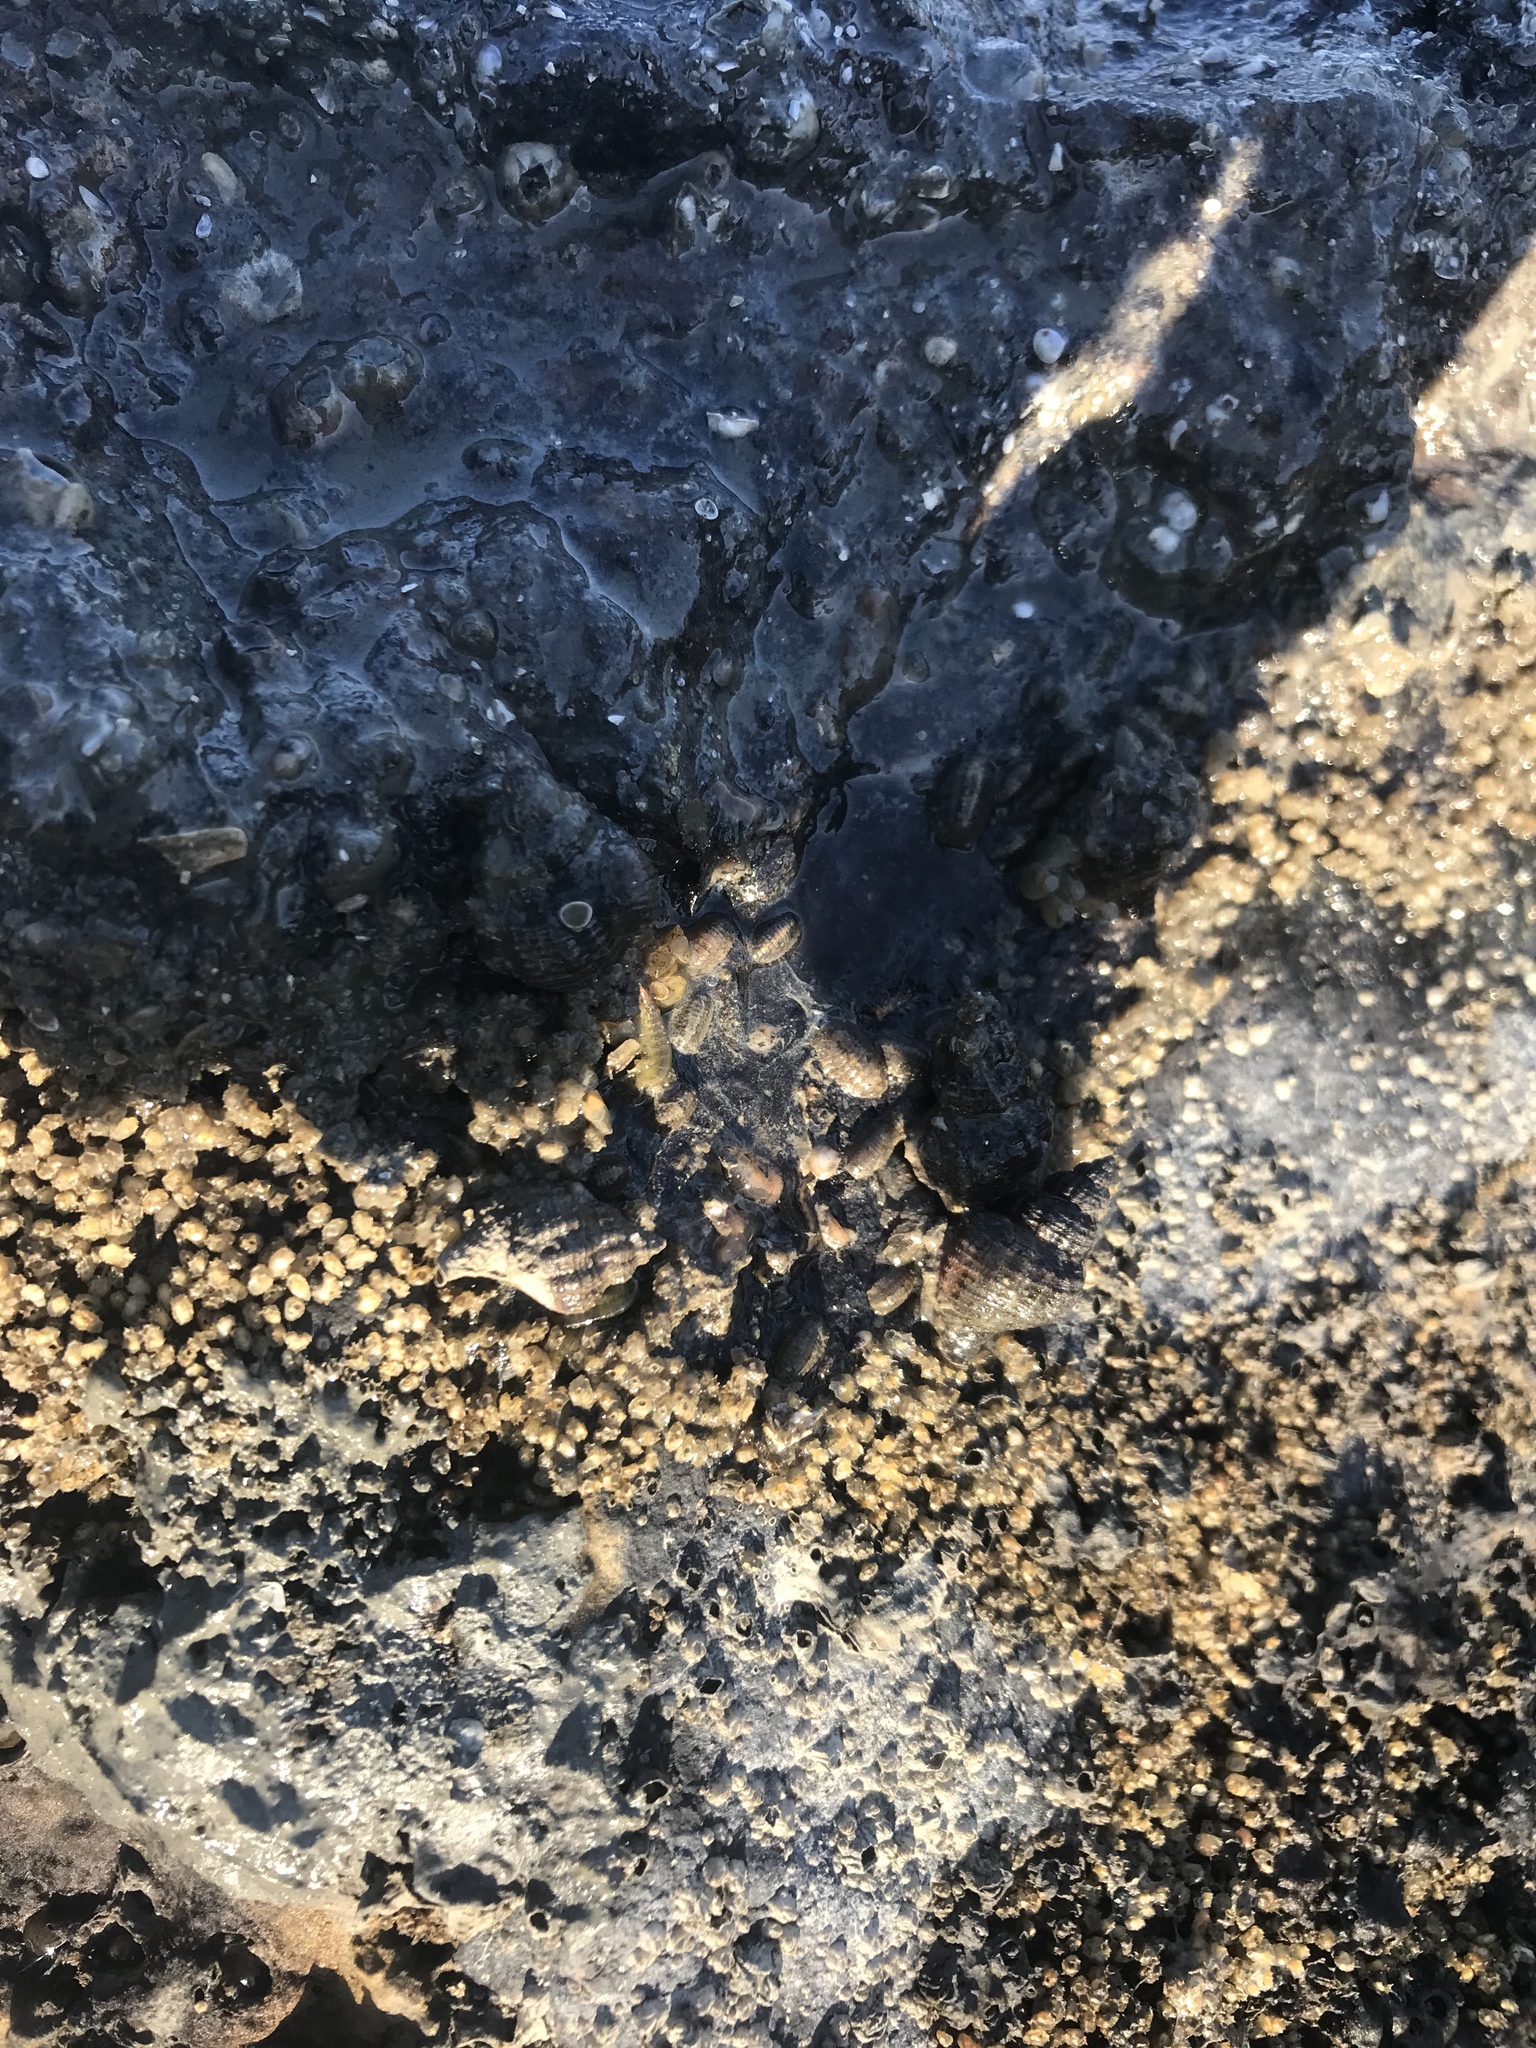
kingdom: Animalia
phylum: Mollusca
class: Gastropoda
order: Neogastropoda
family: Muricidae
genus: Urosalpinx
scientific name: Urosalpinx cinerea
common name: American sting winkle
